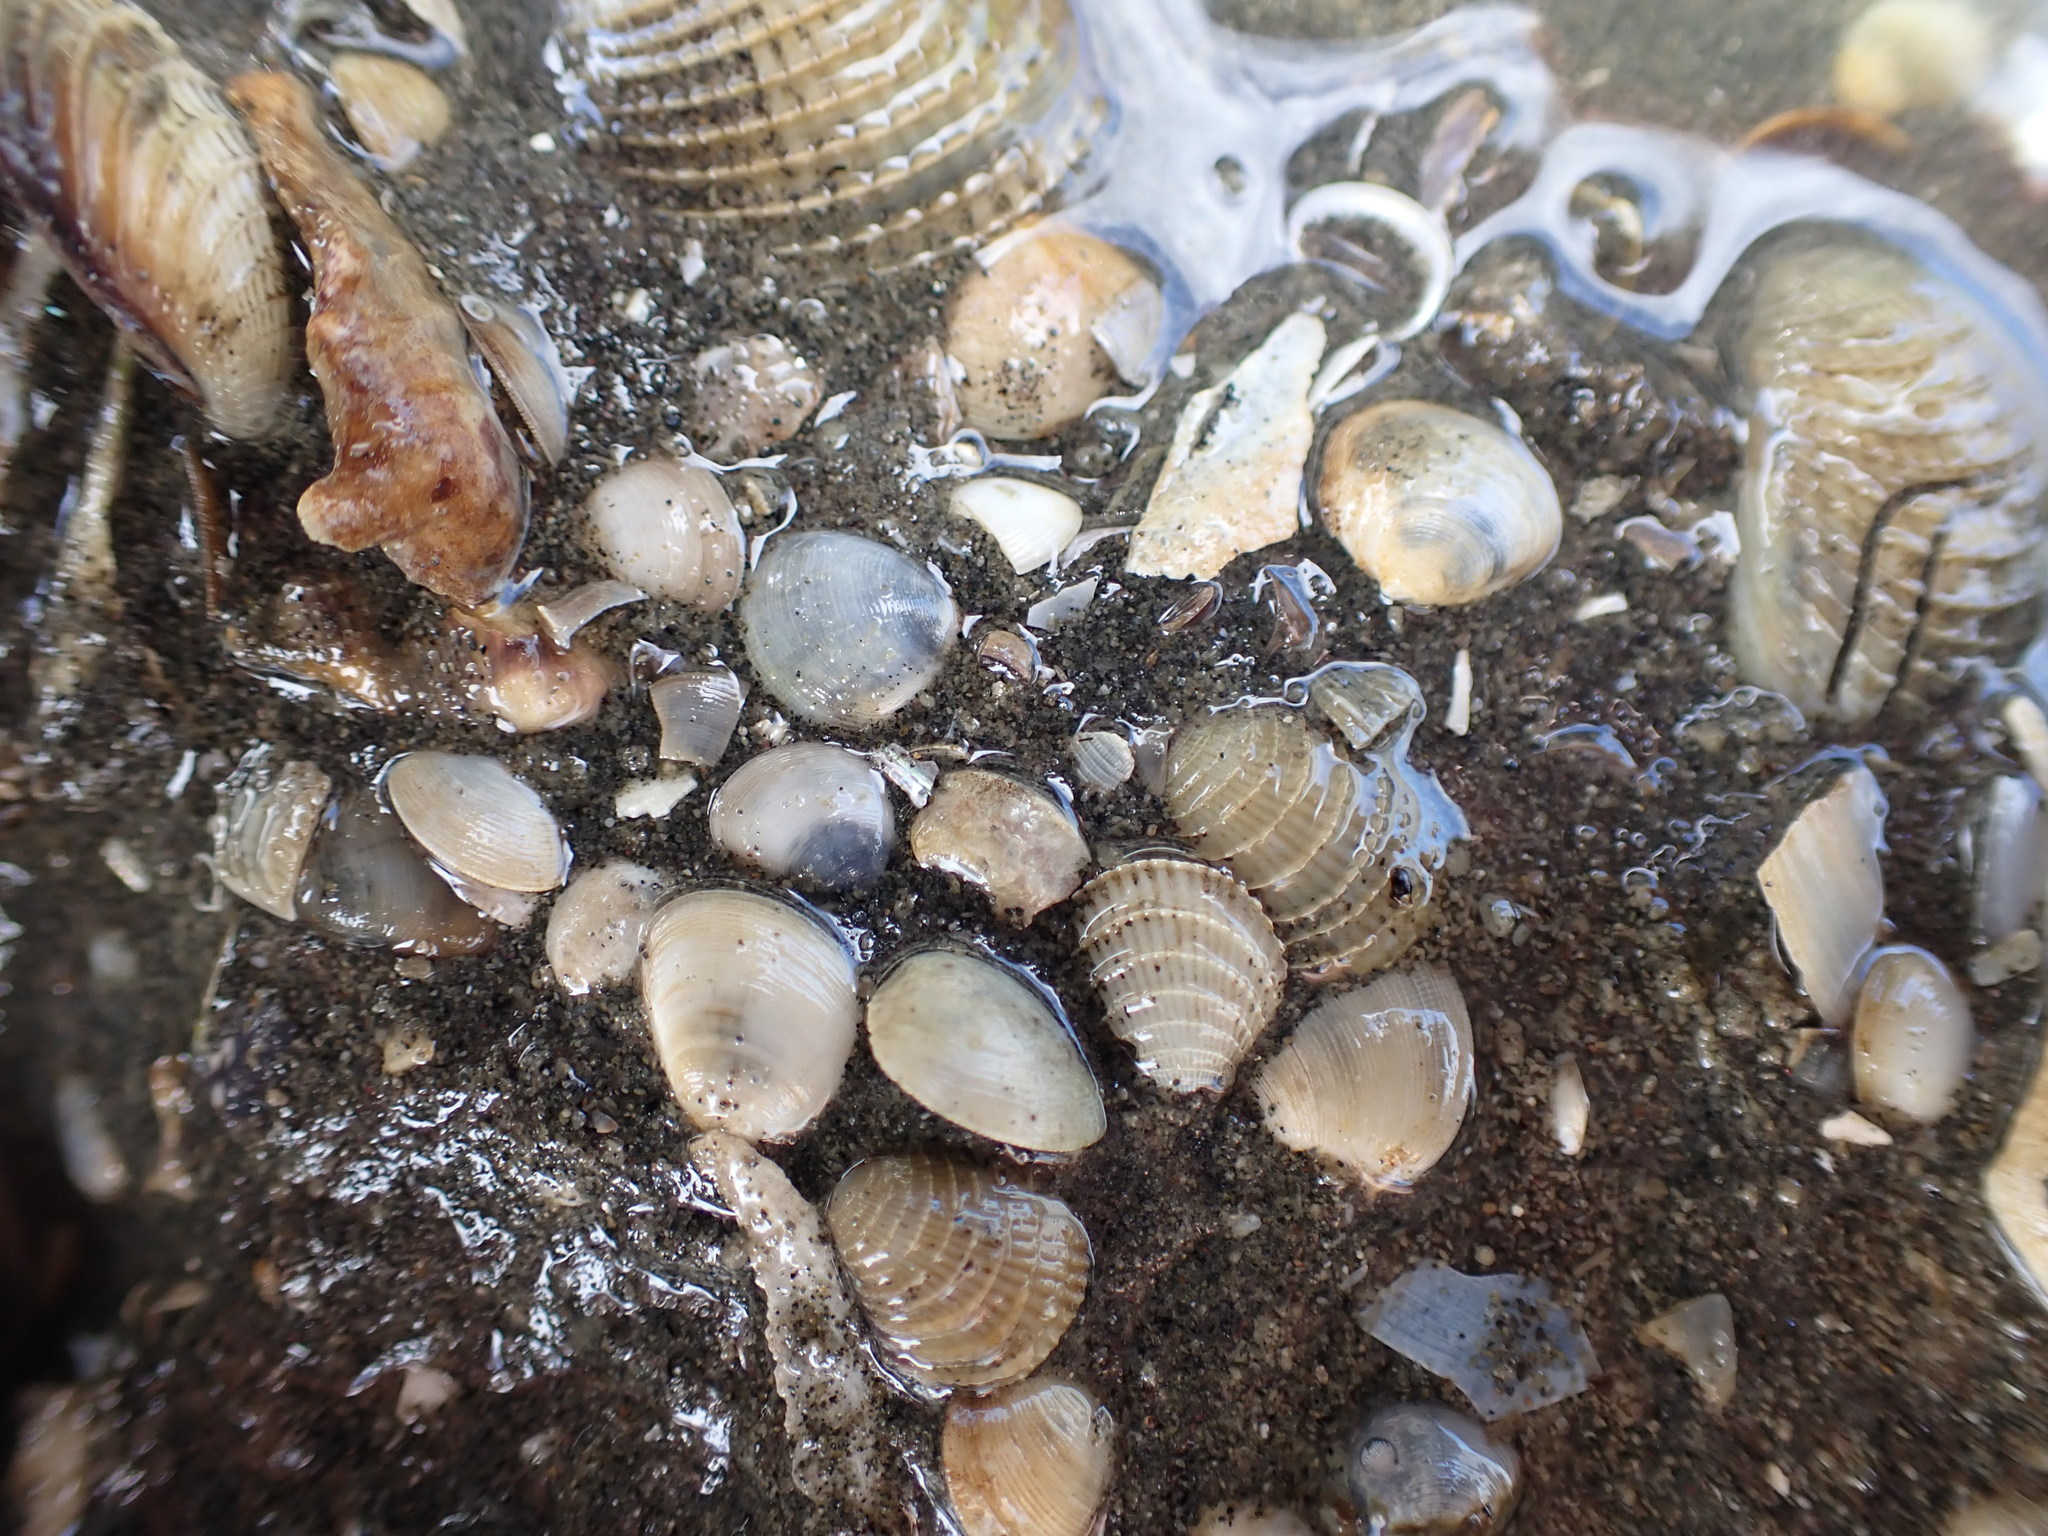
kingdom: Animalia
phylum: Mollusca
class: Bivalvia
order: Nuculida
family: Nuculidae
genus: Linucula
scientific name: Linucula hartvigiana
